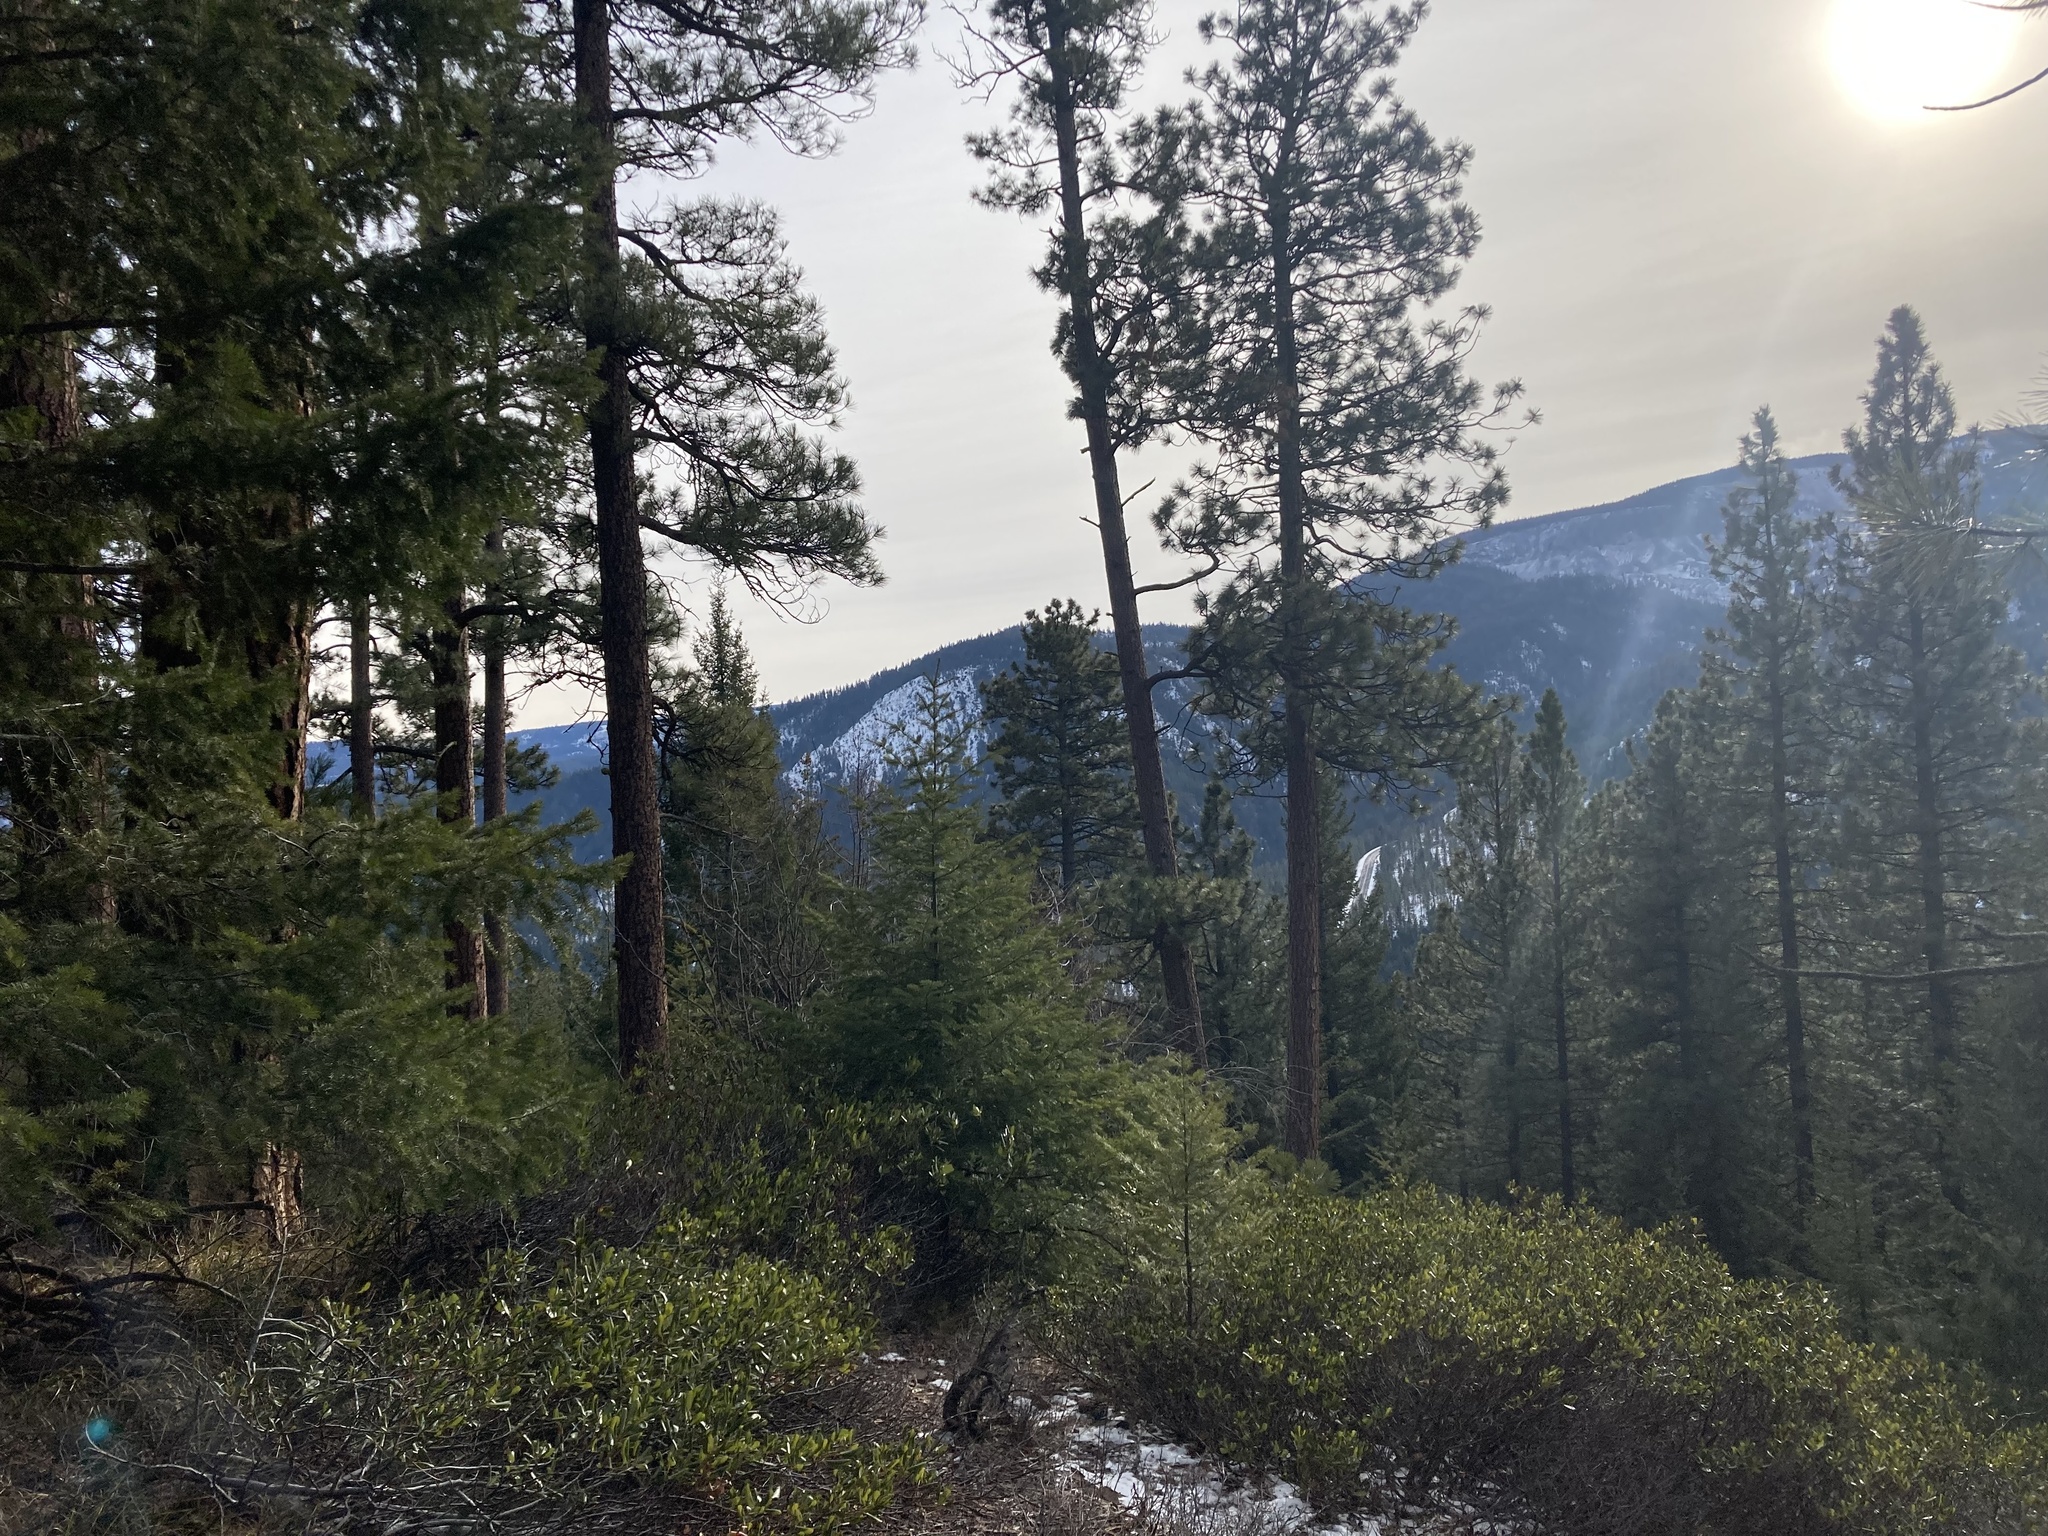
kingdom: Plantae
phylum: Tracheophyta
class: Pinopsida
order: Pinales
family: Pinaceae
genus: Pinus
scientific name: Pinus ponderosa
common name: Western yellow-pine
